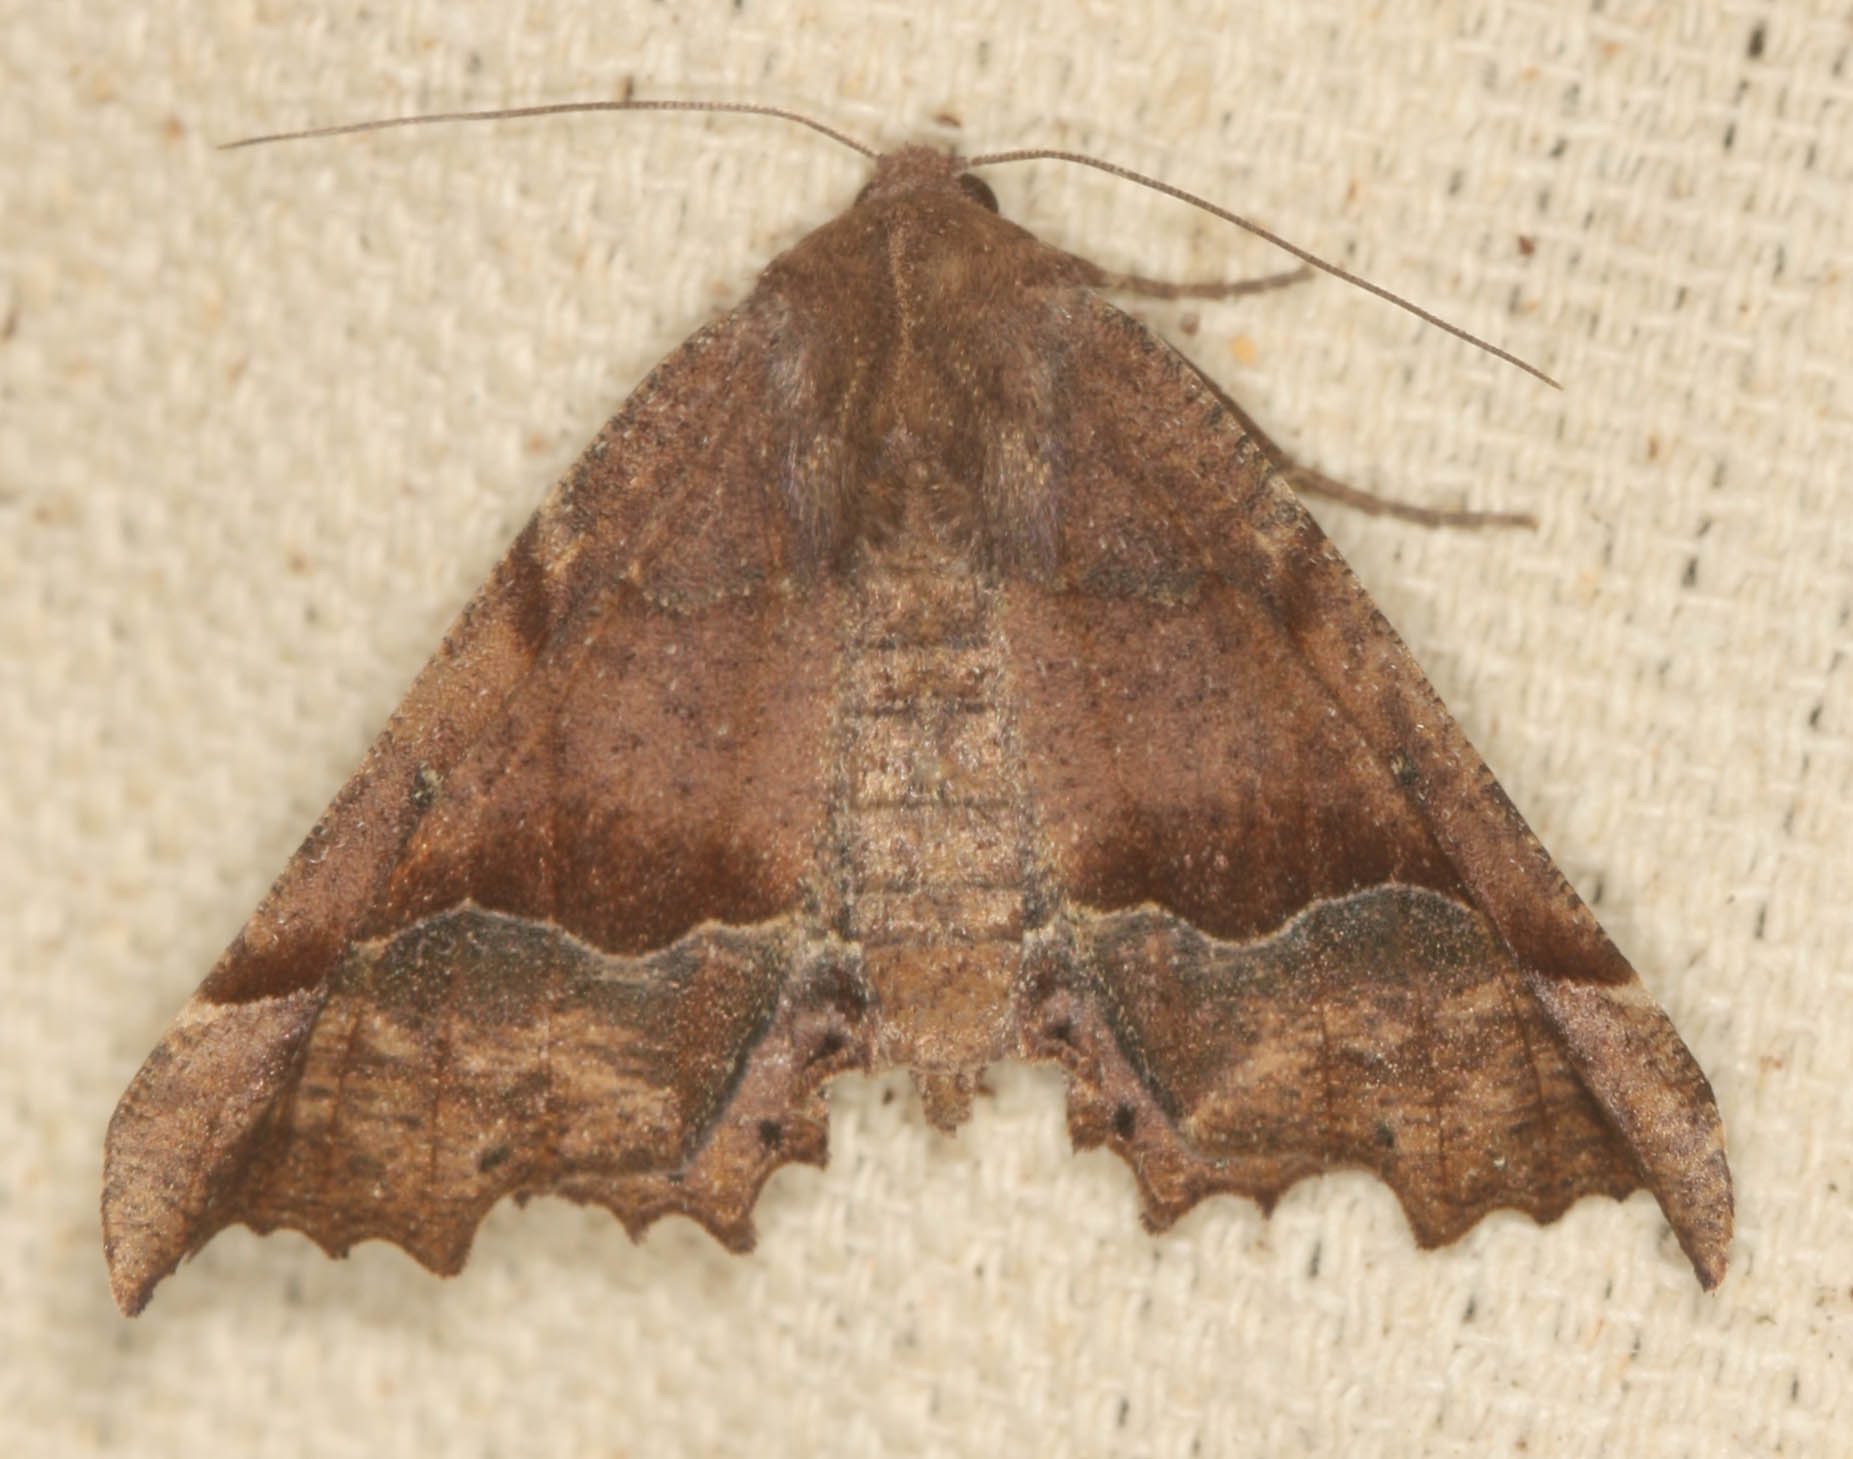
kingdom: Animalia
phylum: Arthropoda
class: Insecta
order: Lepidoptera
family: Geometridae
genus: Pero
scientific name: Pero occidentalis
